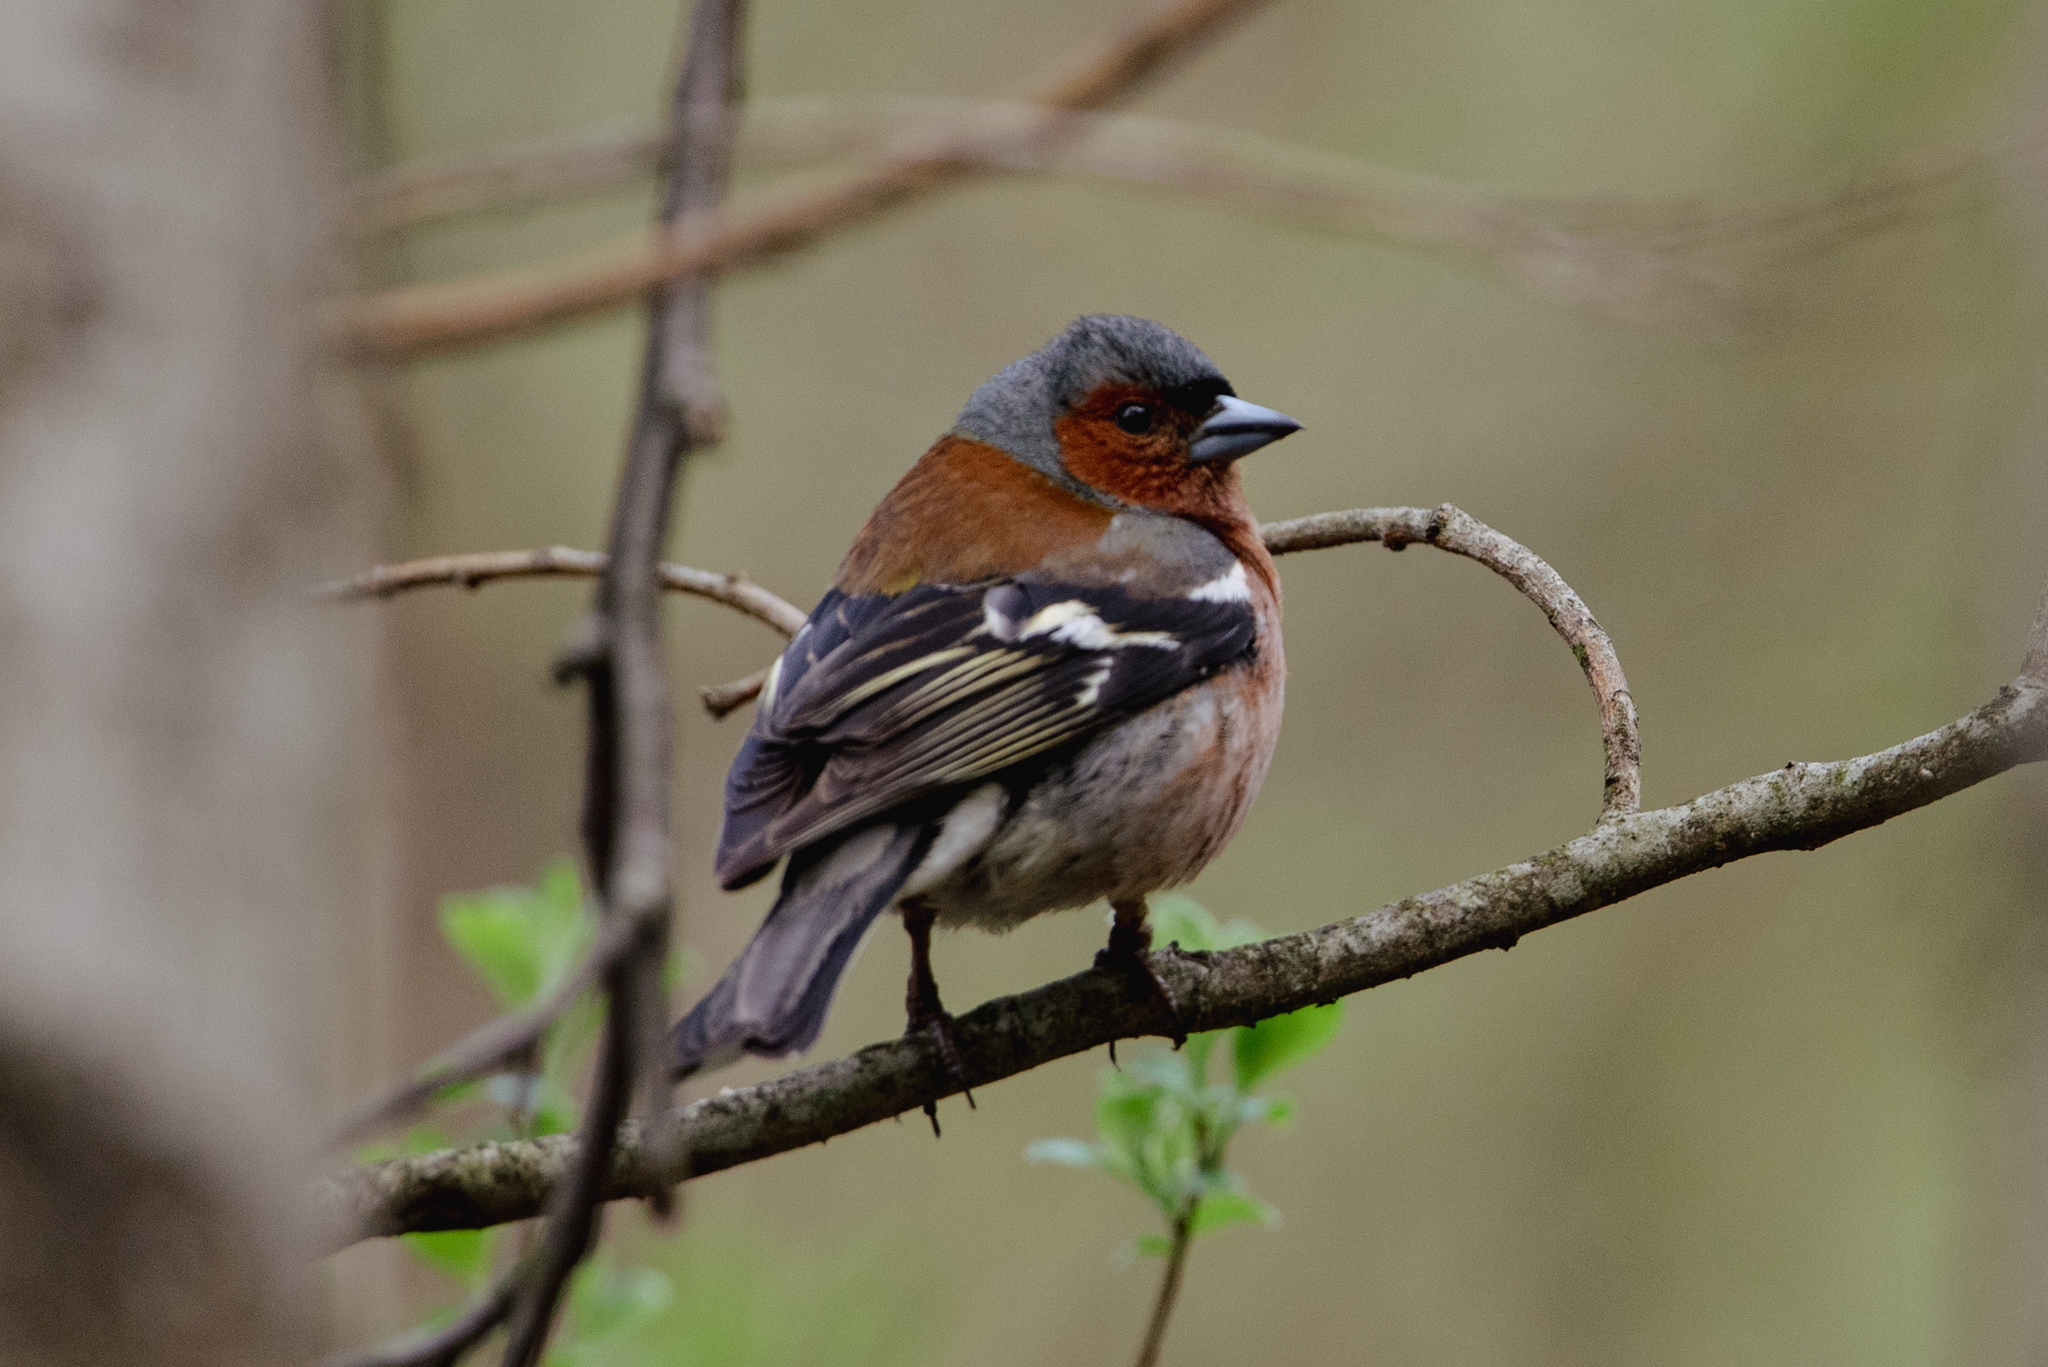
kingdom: Animalia
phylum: Chordata
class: Aves
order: Passeriformes
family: Fringillidae
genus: Fringilla
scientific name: Fringilla coelebs
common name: Common chaffinch
